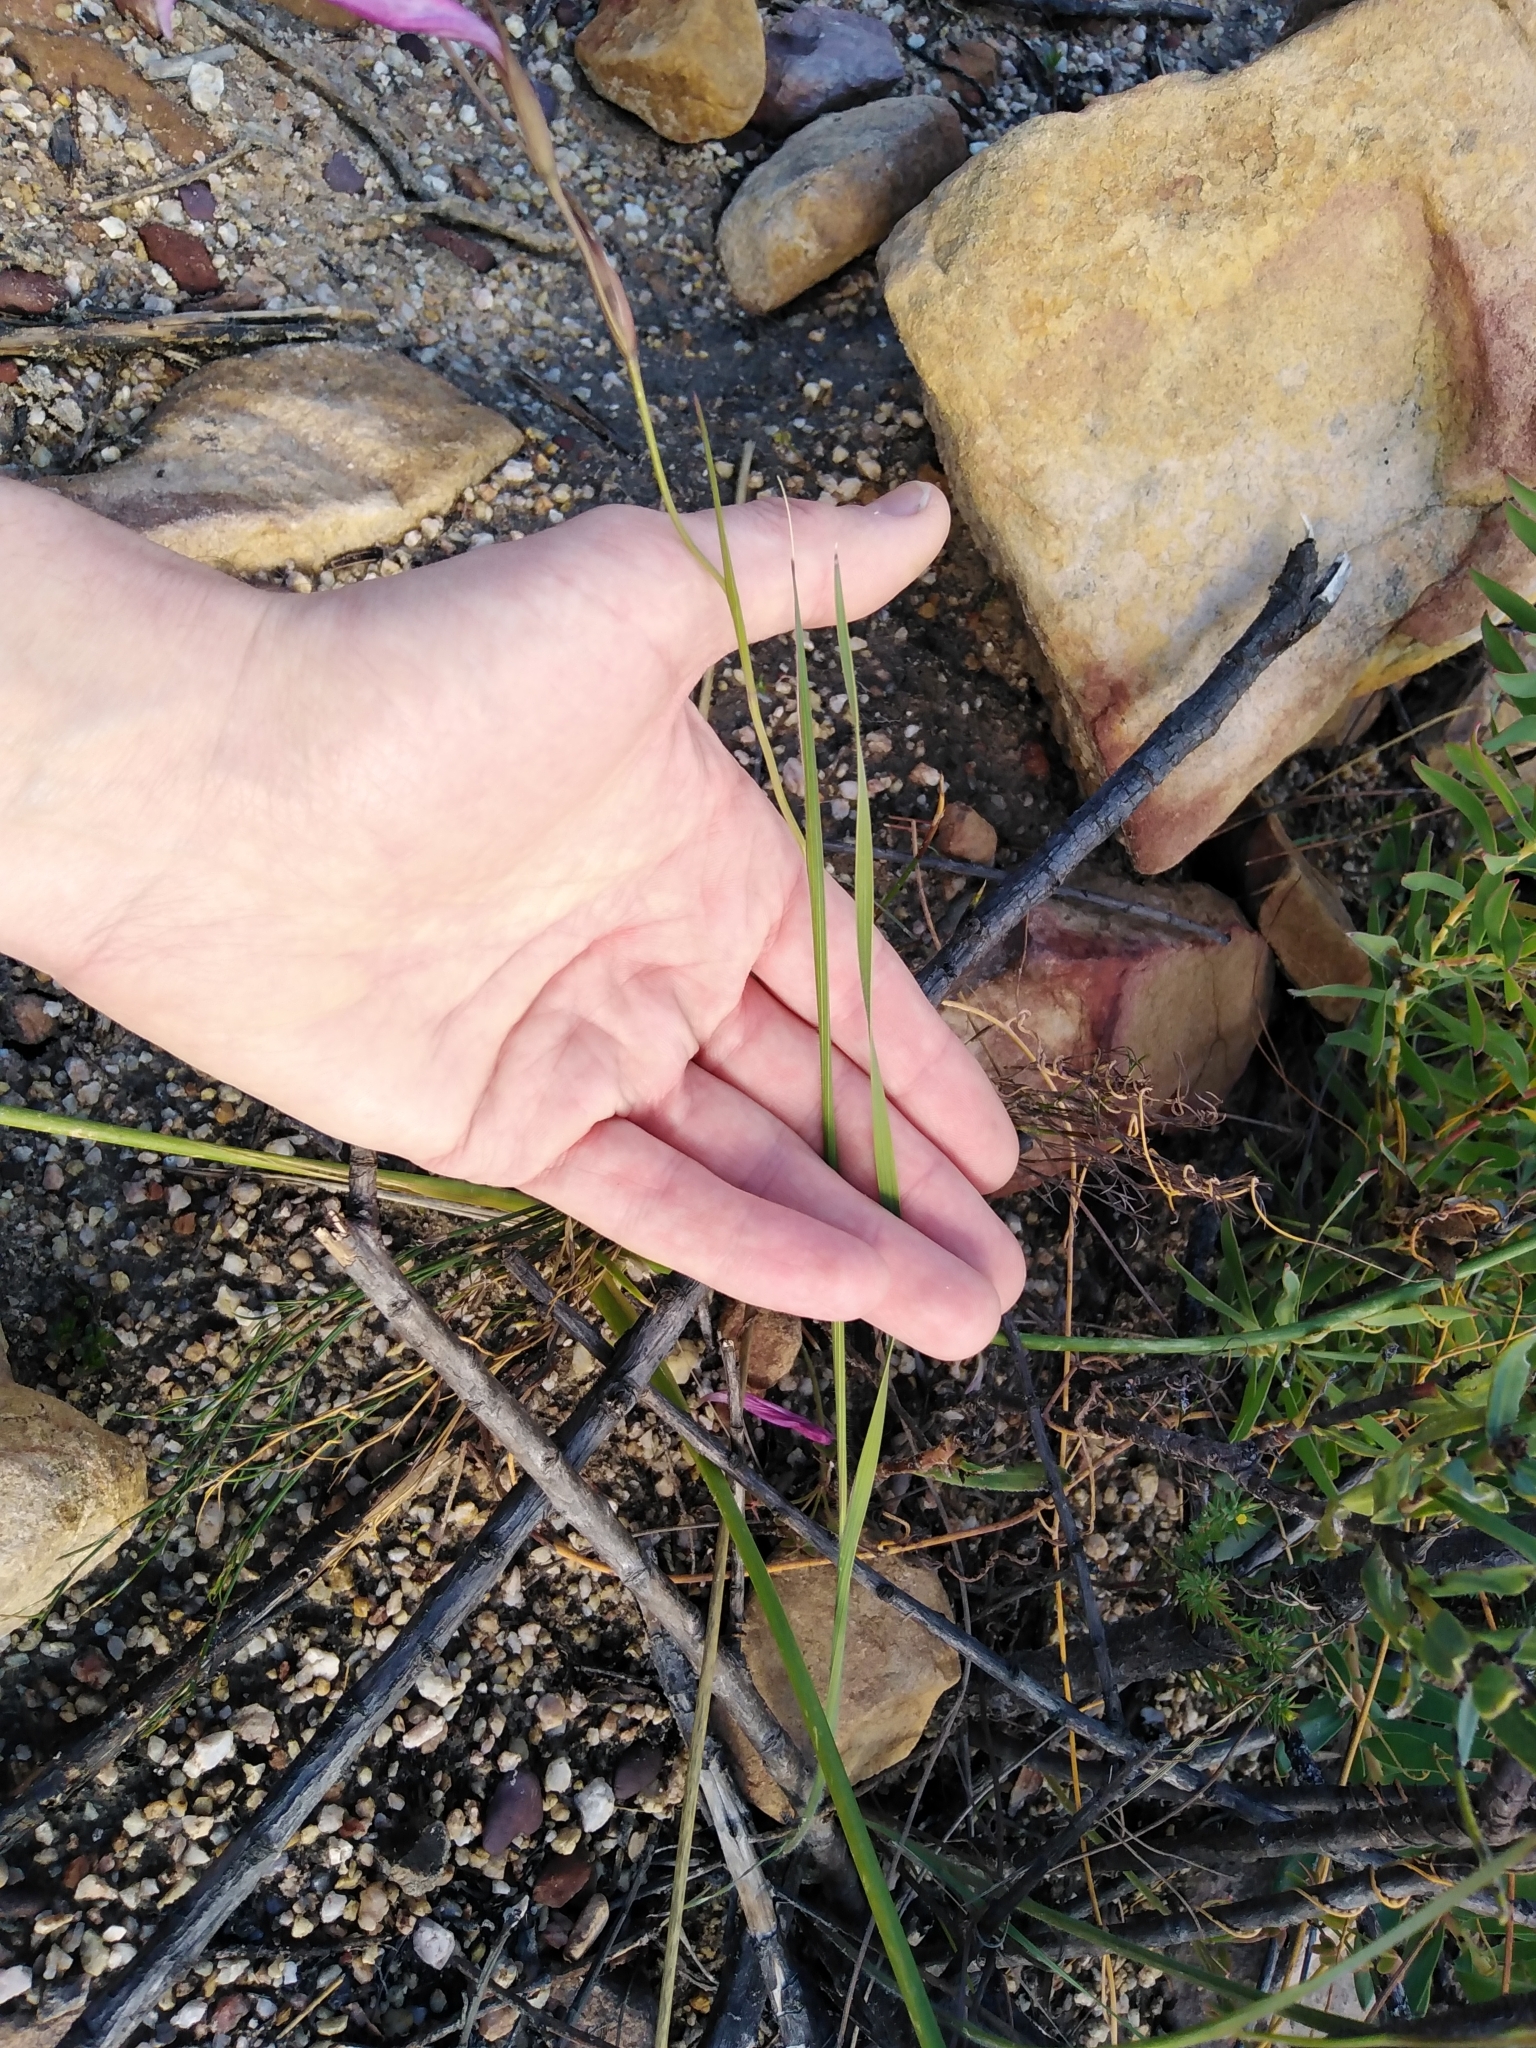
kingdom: Plantae
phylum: Tracheophyta
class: Liliopsida
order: Asparagales
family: Iridaceae
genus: Gladiolus
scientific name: Gladiolus hirsutus
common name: Small pink afrikaner
